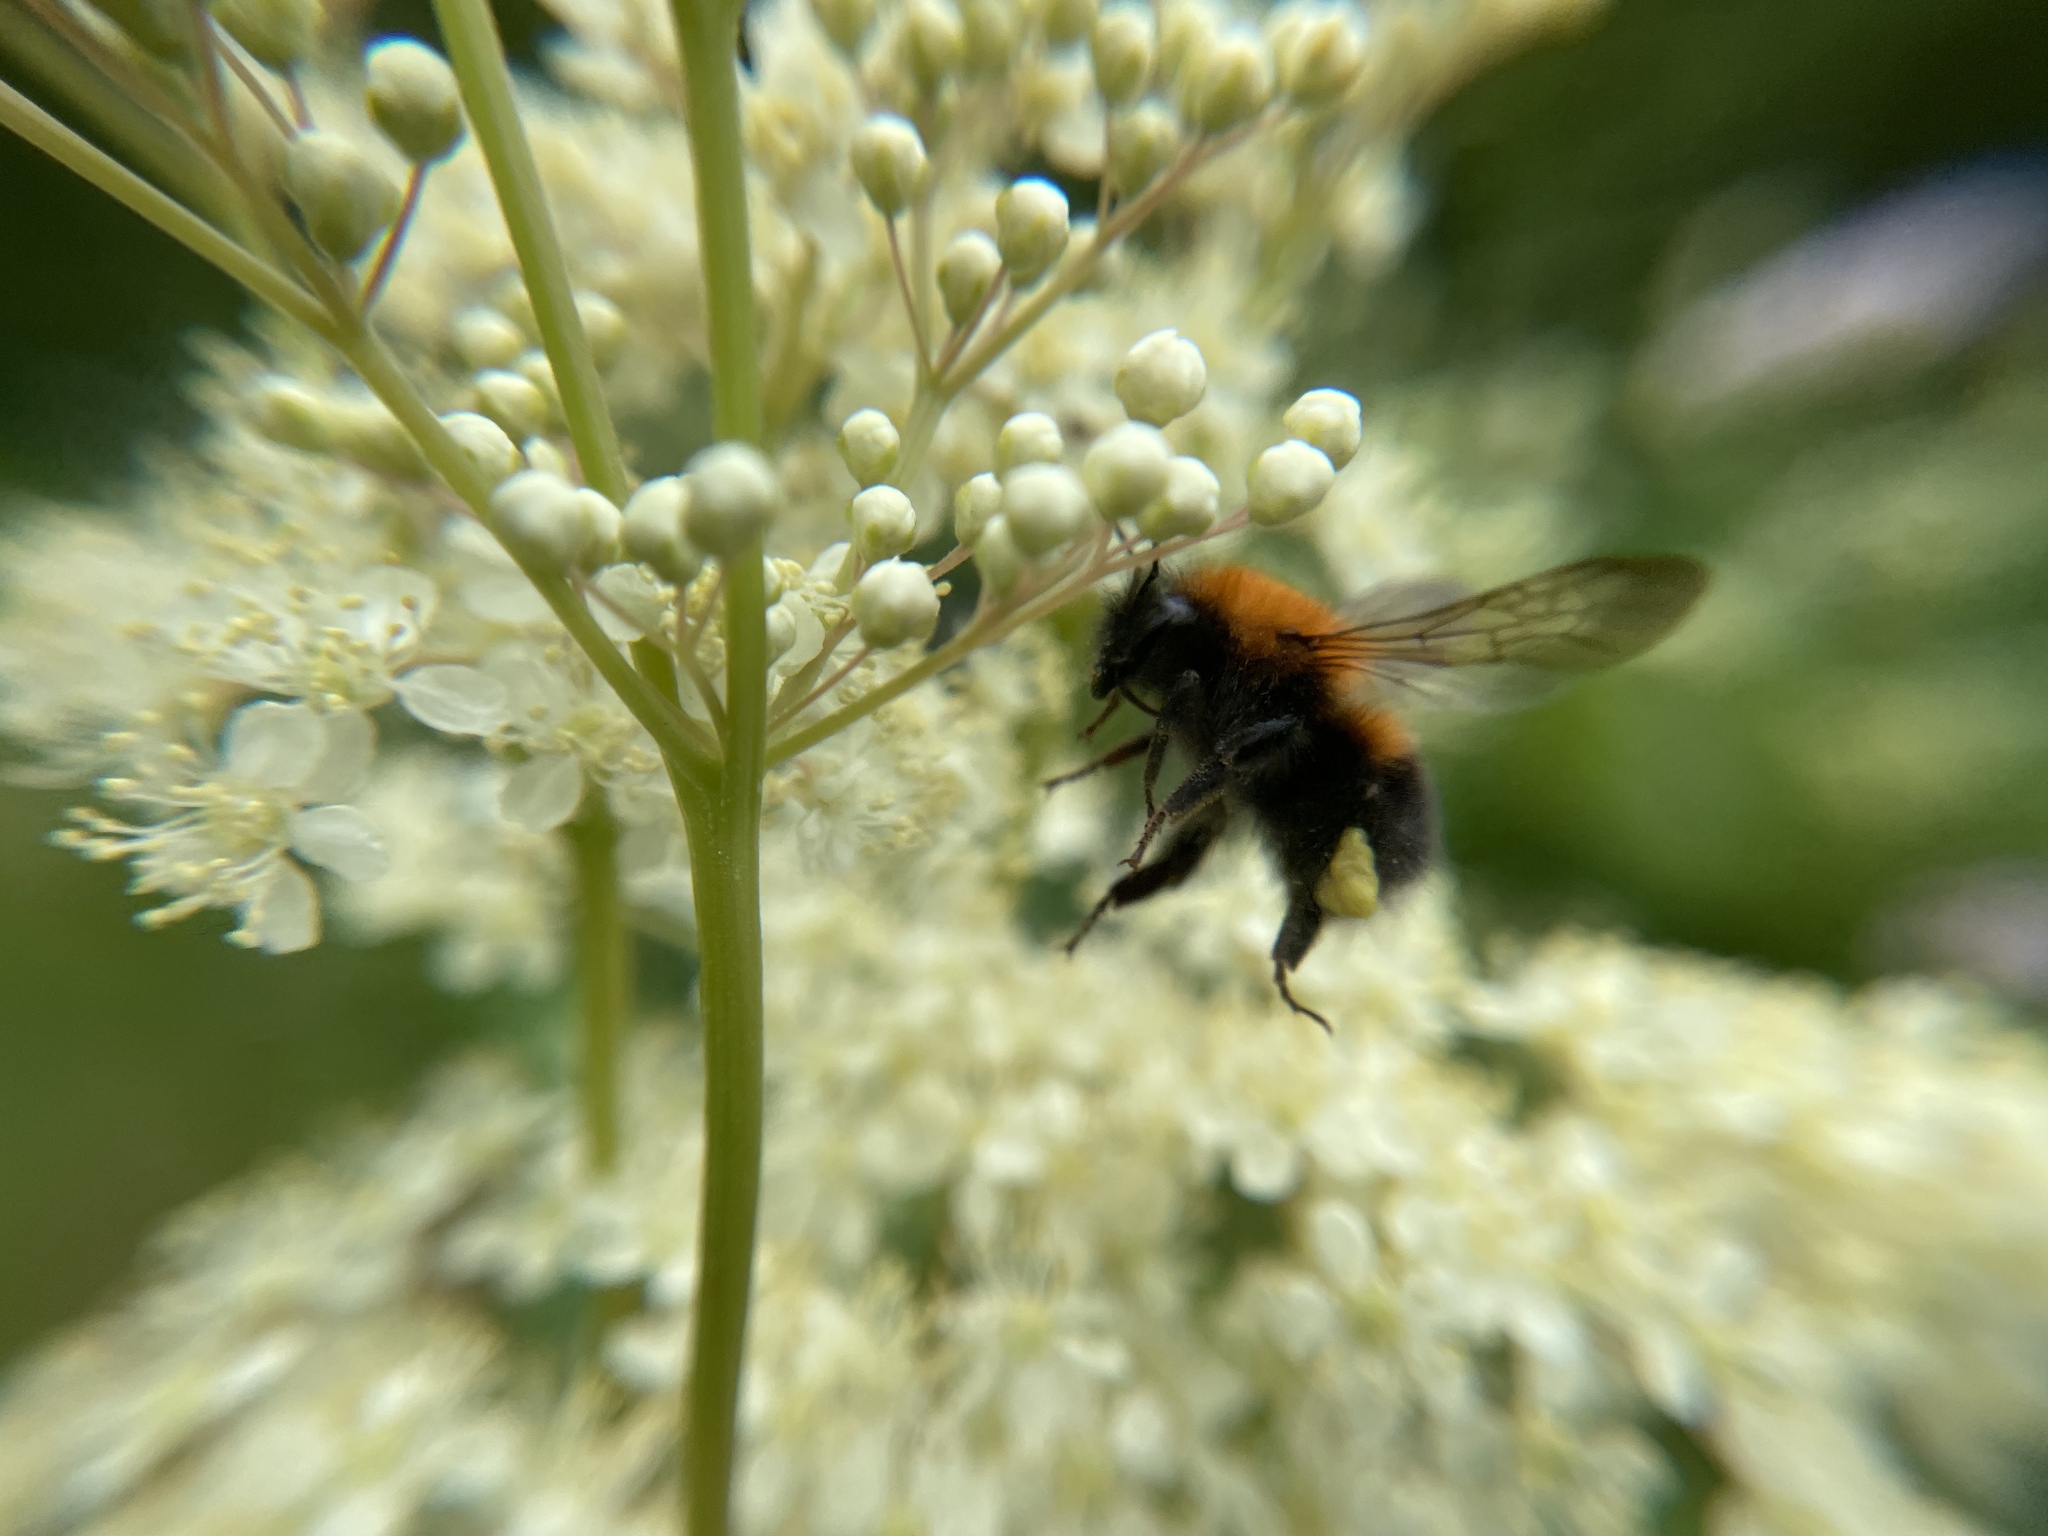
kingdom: Animalia
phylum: Arthropoda
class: Insecta
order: Hymenoptera
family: Apidae
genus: Bombus
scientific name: Bombus hypnorum
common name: New garden bumblebee
